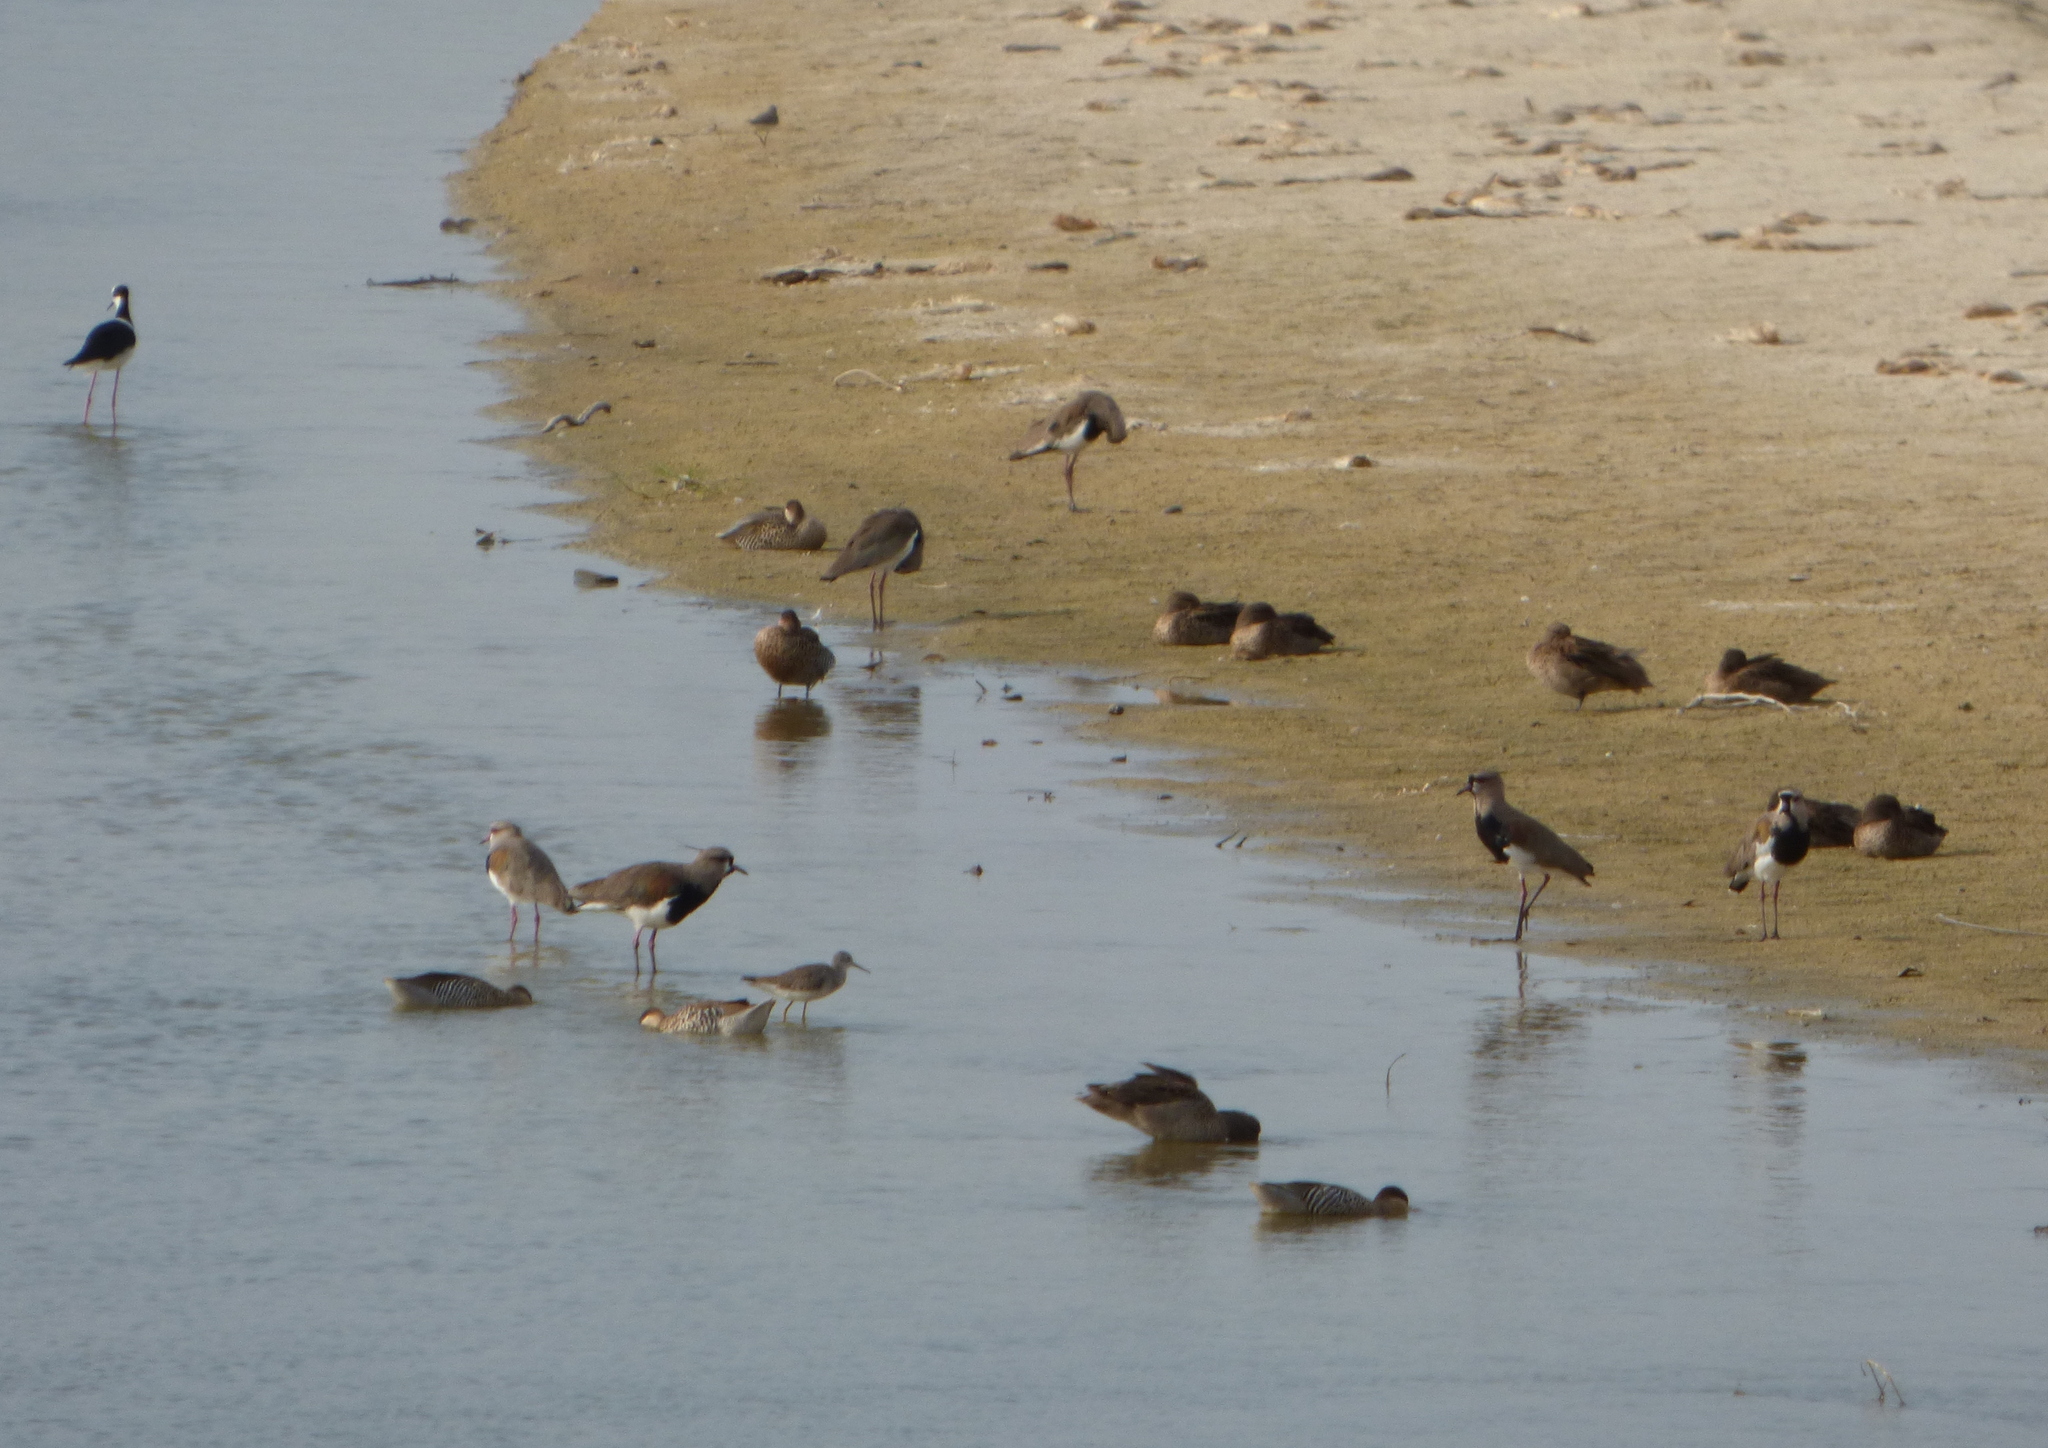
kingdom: Animalia
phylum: Chordata
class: Aves
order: Charadriiformes
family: Charadriidae
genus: Vanellus
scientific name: Vanellus chilensis
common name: Southern lapwing
